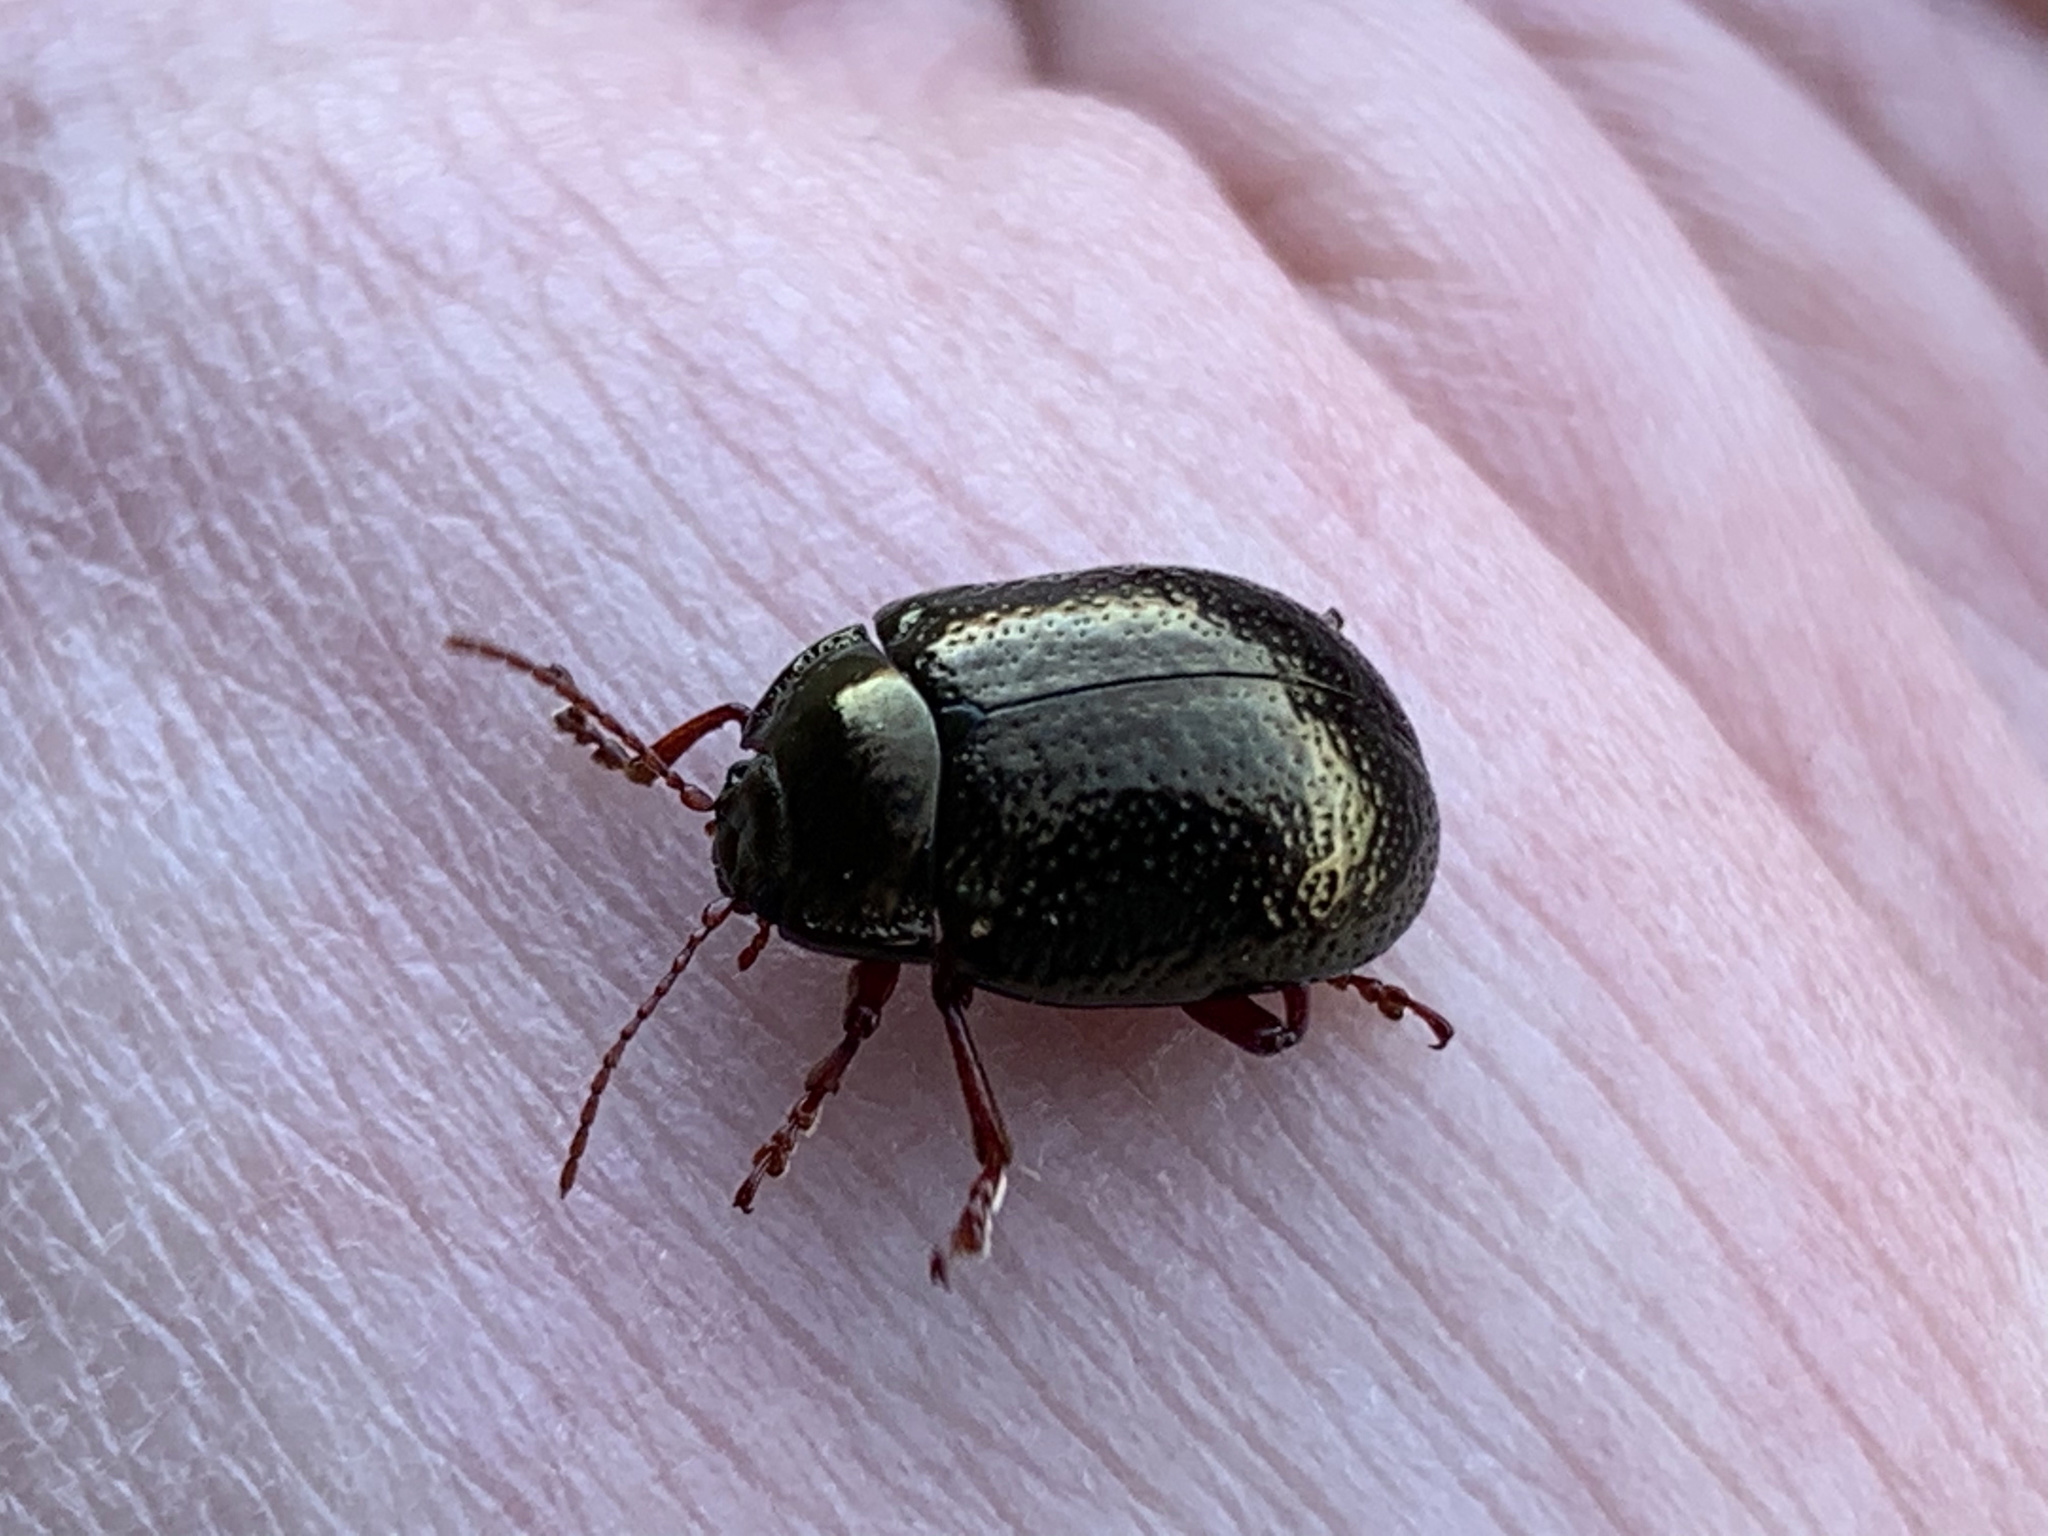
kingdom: Animalia
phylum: Arthropoda
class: Insecta
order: Coleoptera
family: Chrysomelidae
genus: Chrysolina
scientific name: Chrysolina bankii
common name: Leaf beetle
